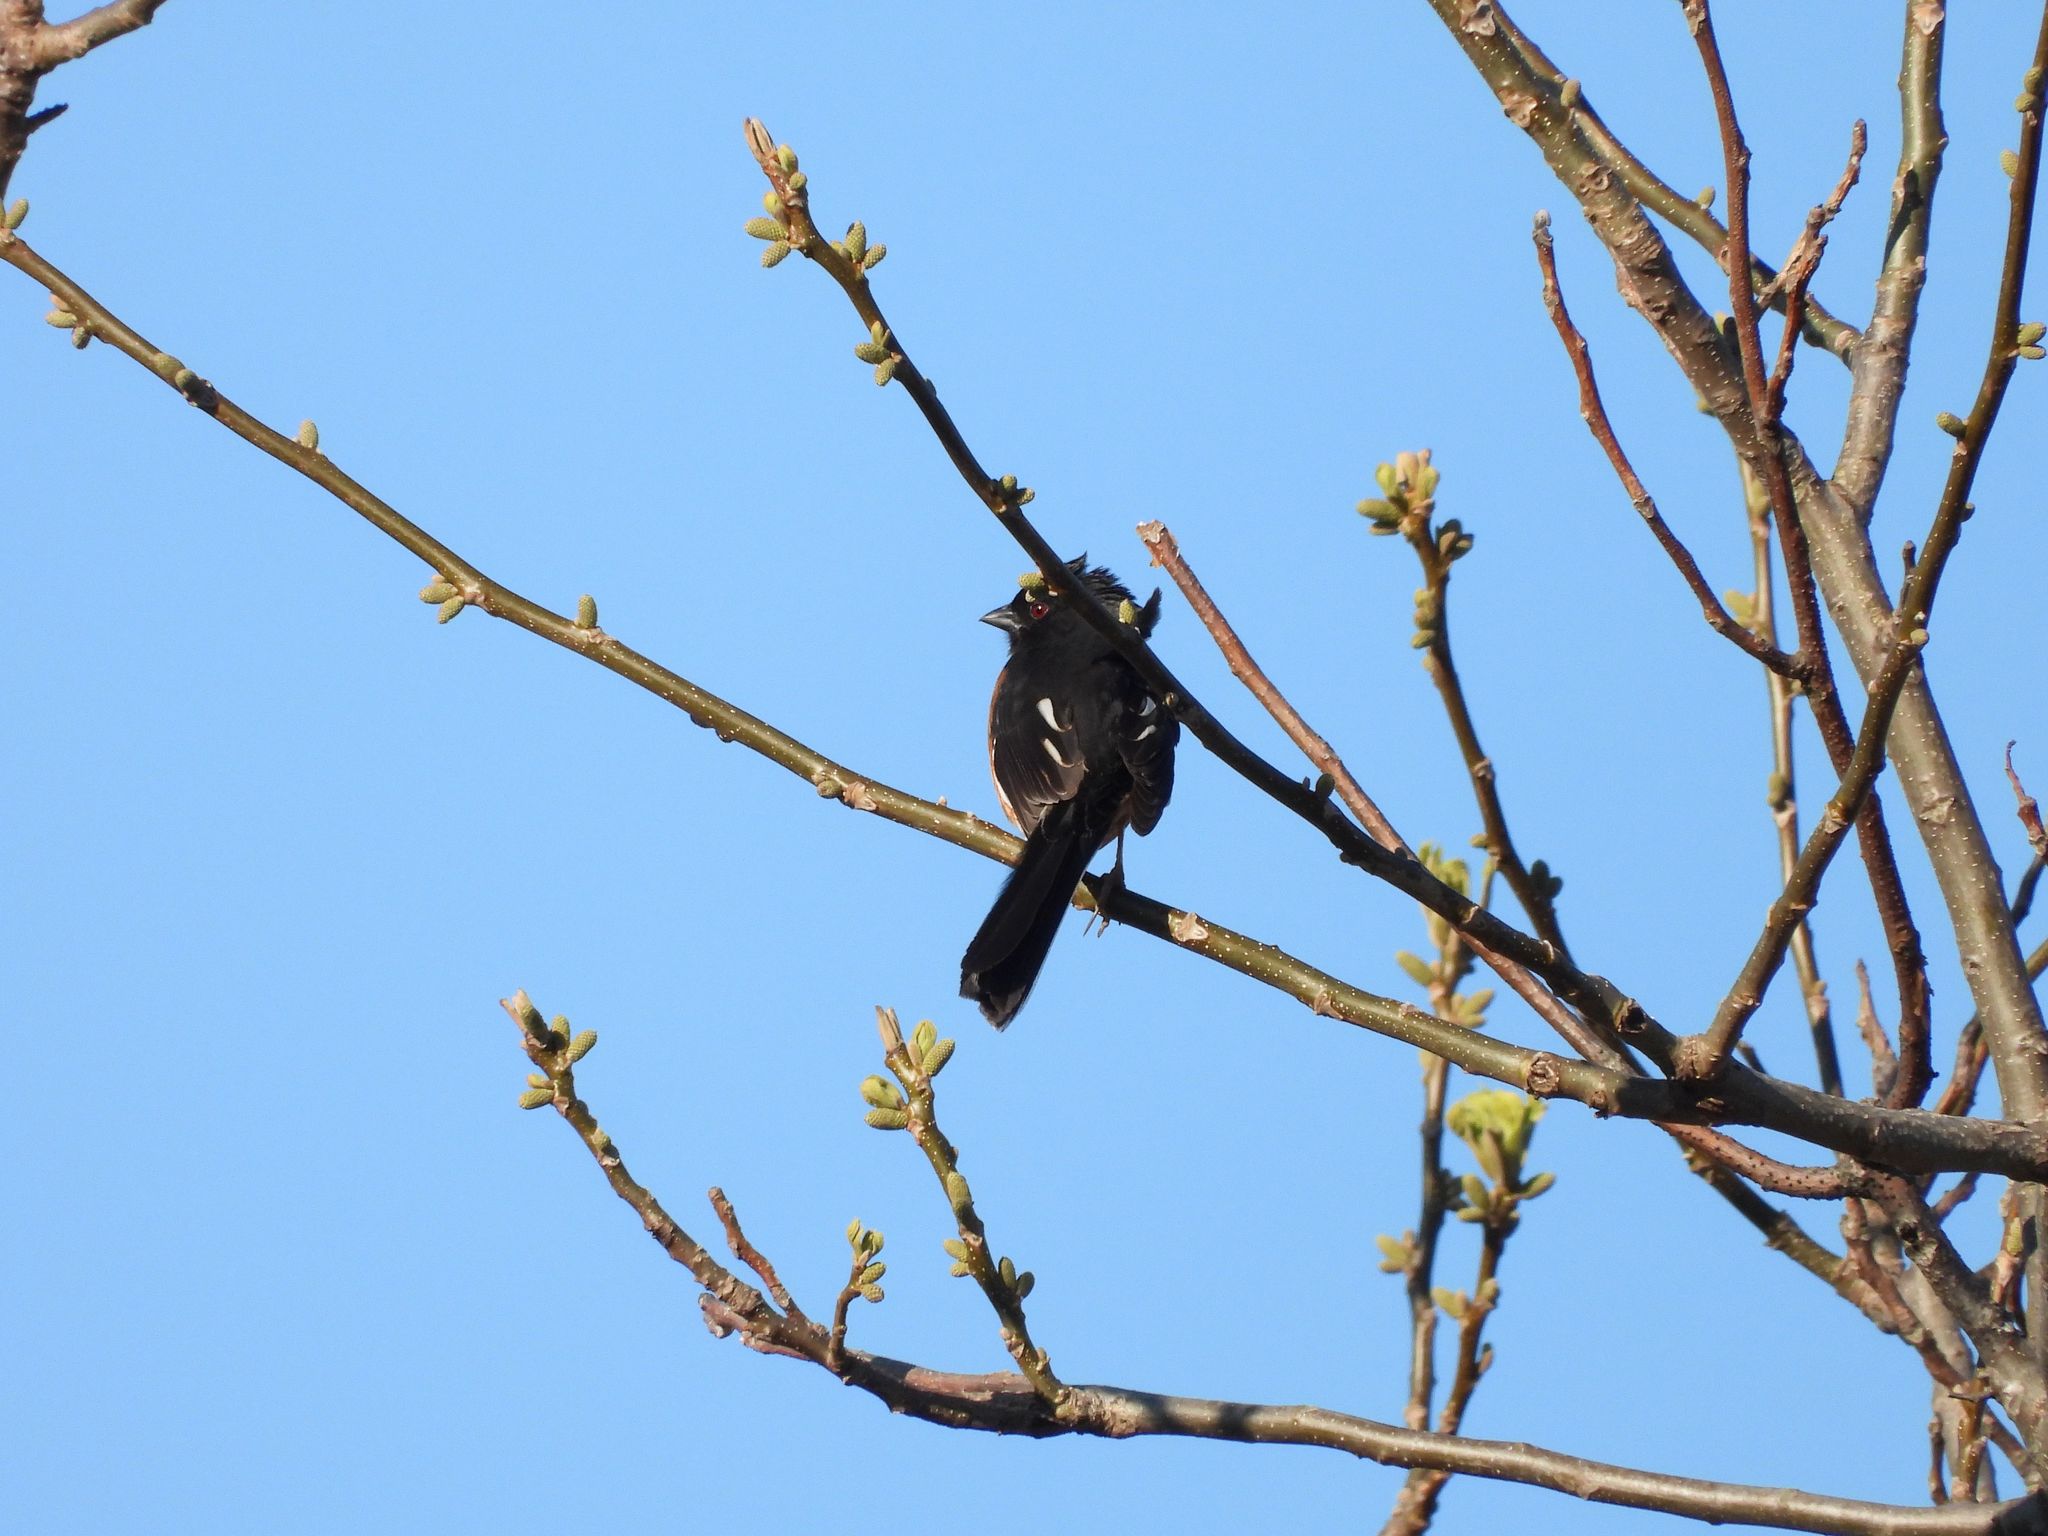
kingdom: Animalia
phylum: Chordata
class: Aves
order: Passeriformes
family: Passerellidae
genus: Pipilo
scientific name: Pipilo erythrophthalmus
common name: Eastern towhee
